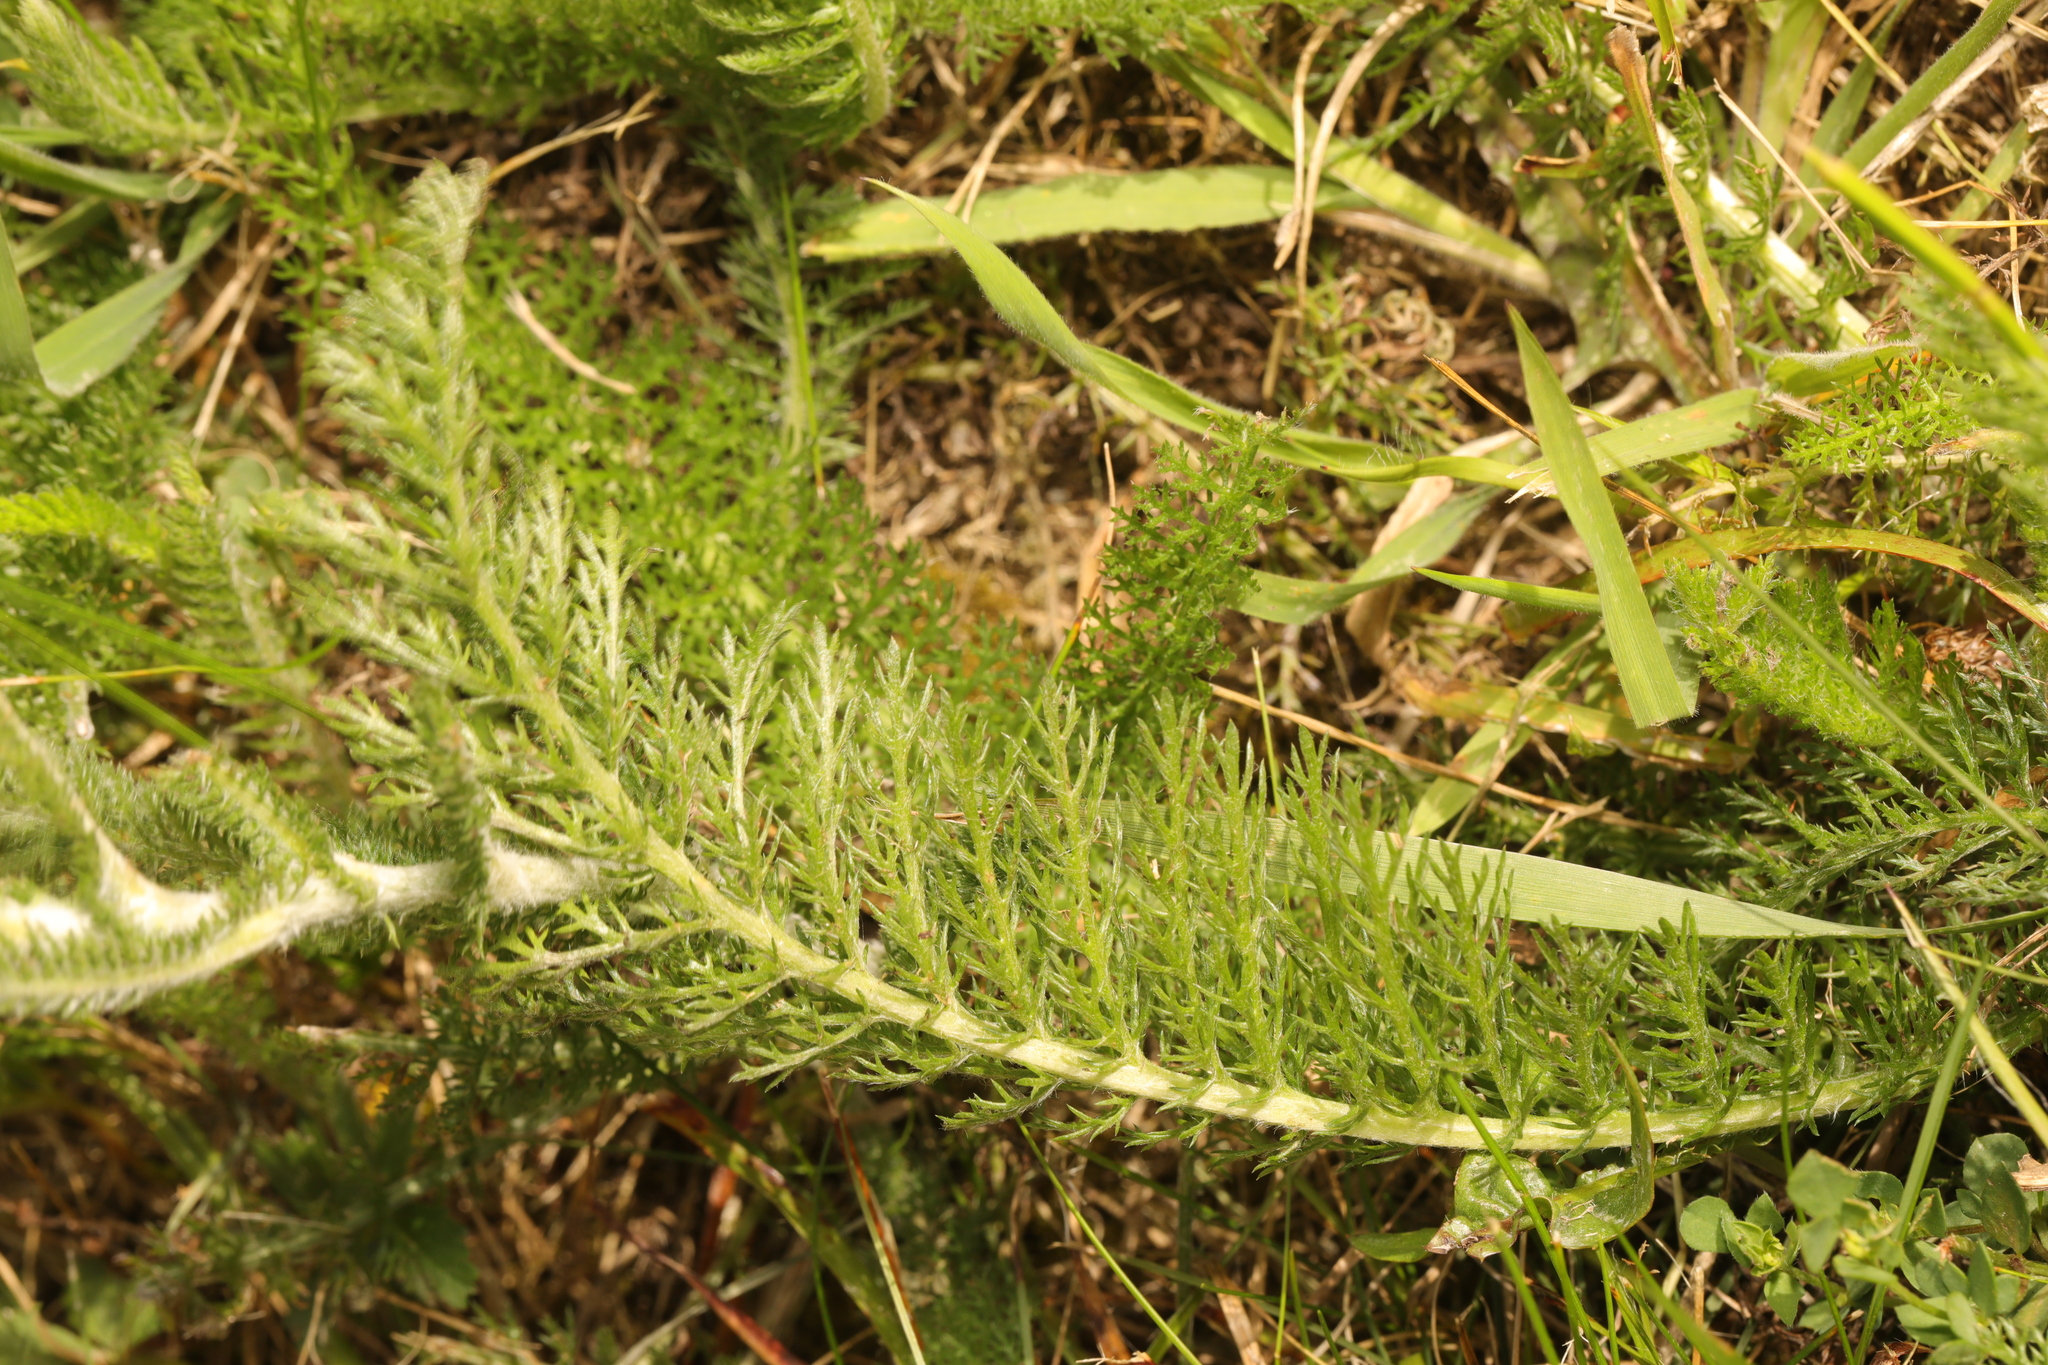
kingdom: Plantae
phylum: Tracheophyta
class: Magnoliopsida
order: Asterales
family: Asteraceae
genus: Achillea
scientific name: Achillea millefolium
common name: Yarrow
